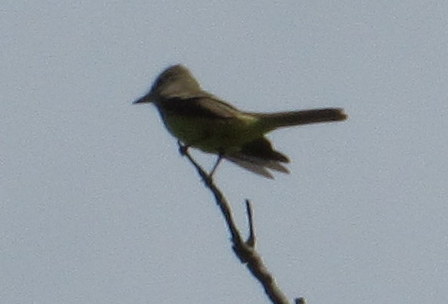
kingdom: Animalia
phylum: Chordata
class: Aves
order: Passeriformes
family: Tyrannidae
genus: Myiarchus
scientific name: Myiarchus crinitus
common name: Great crested flycatcher
